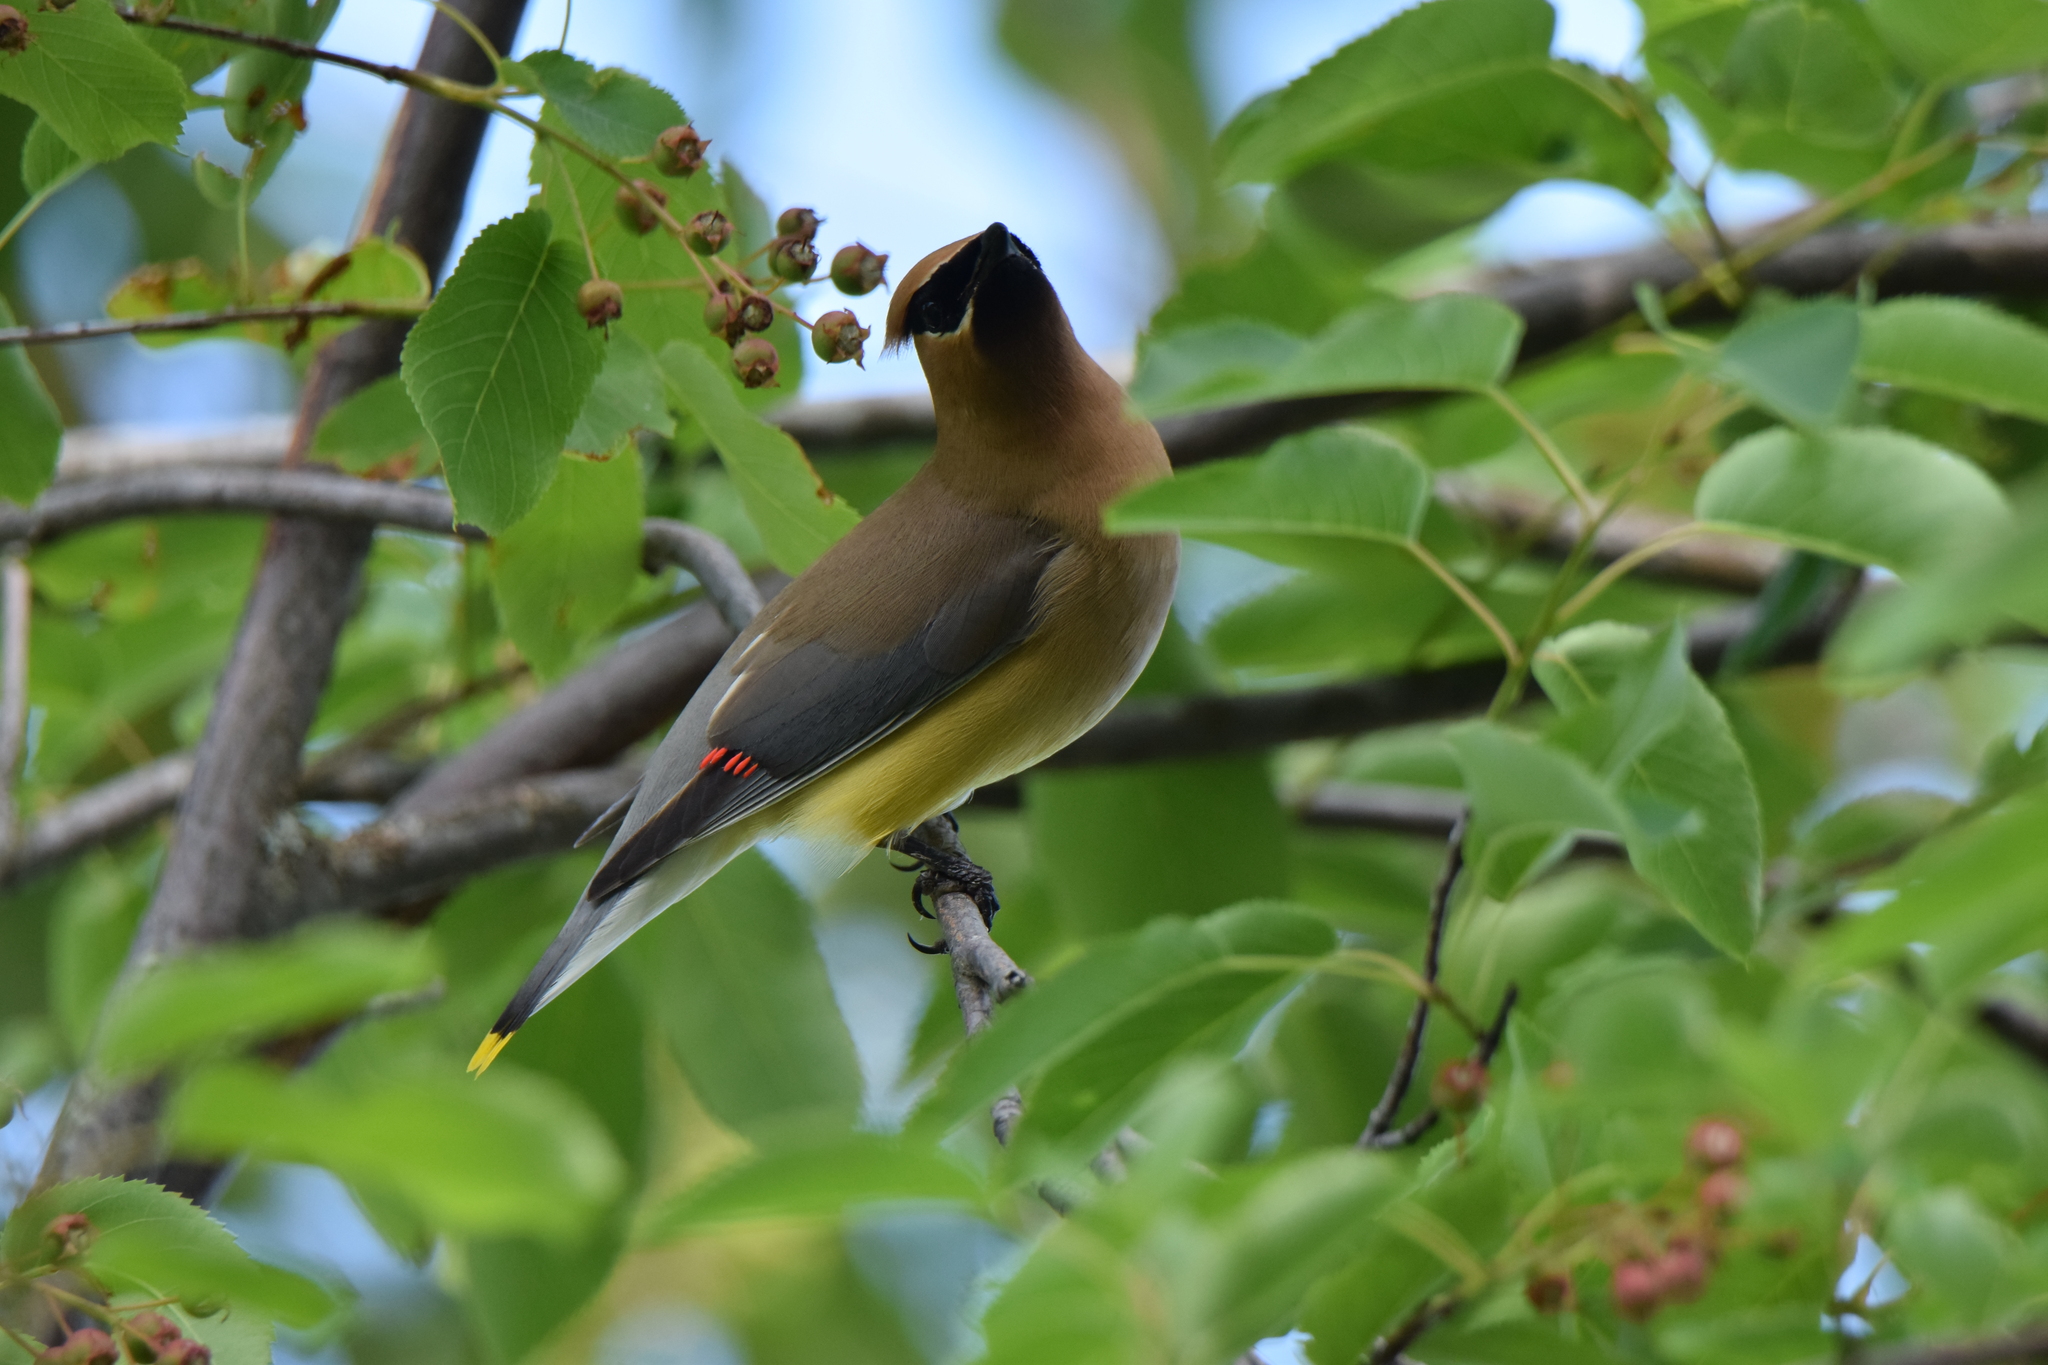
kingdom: Animalia
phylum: Chordata
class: Aves
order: Passeriformes
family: Bombycillidae
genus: Bombycilla
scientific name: Bombycilla cedrorum
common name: Cedar waxwing
